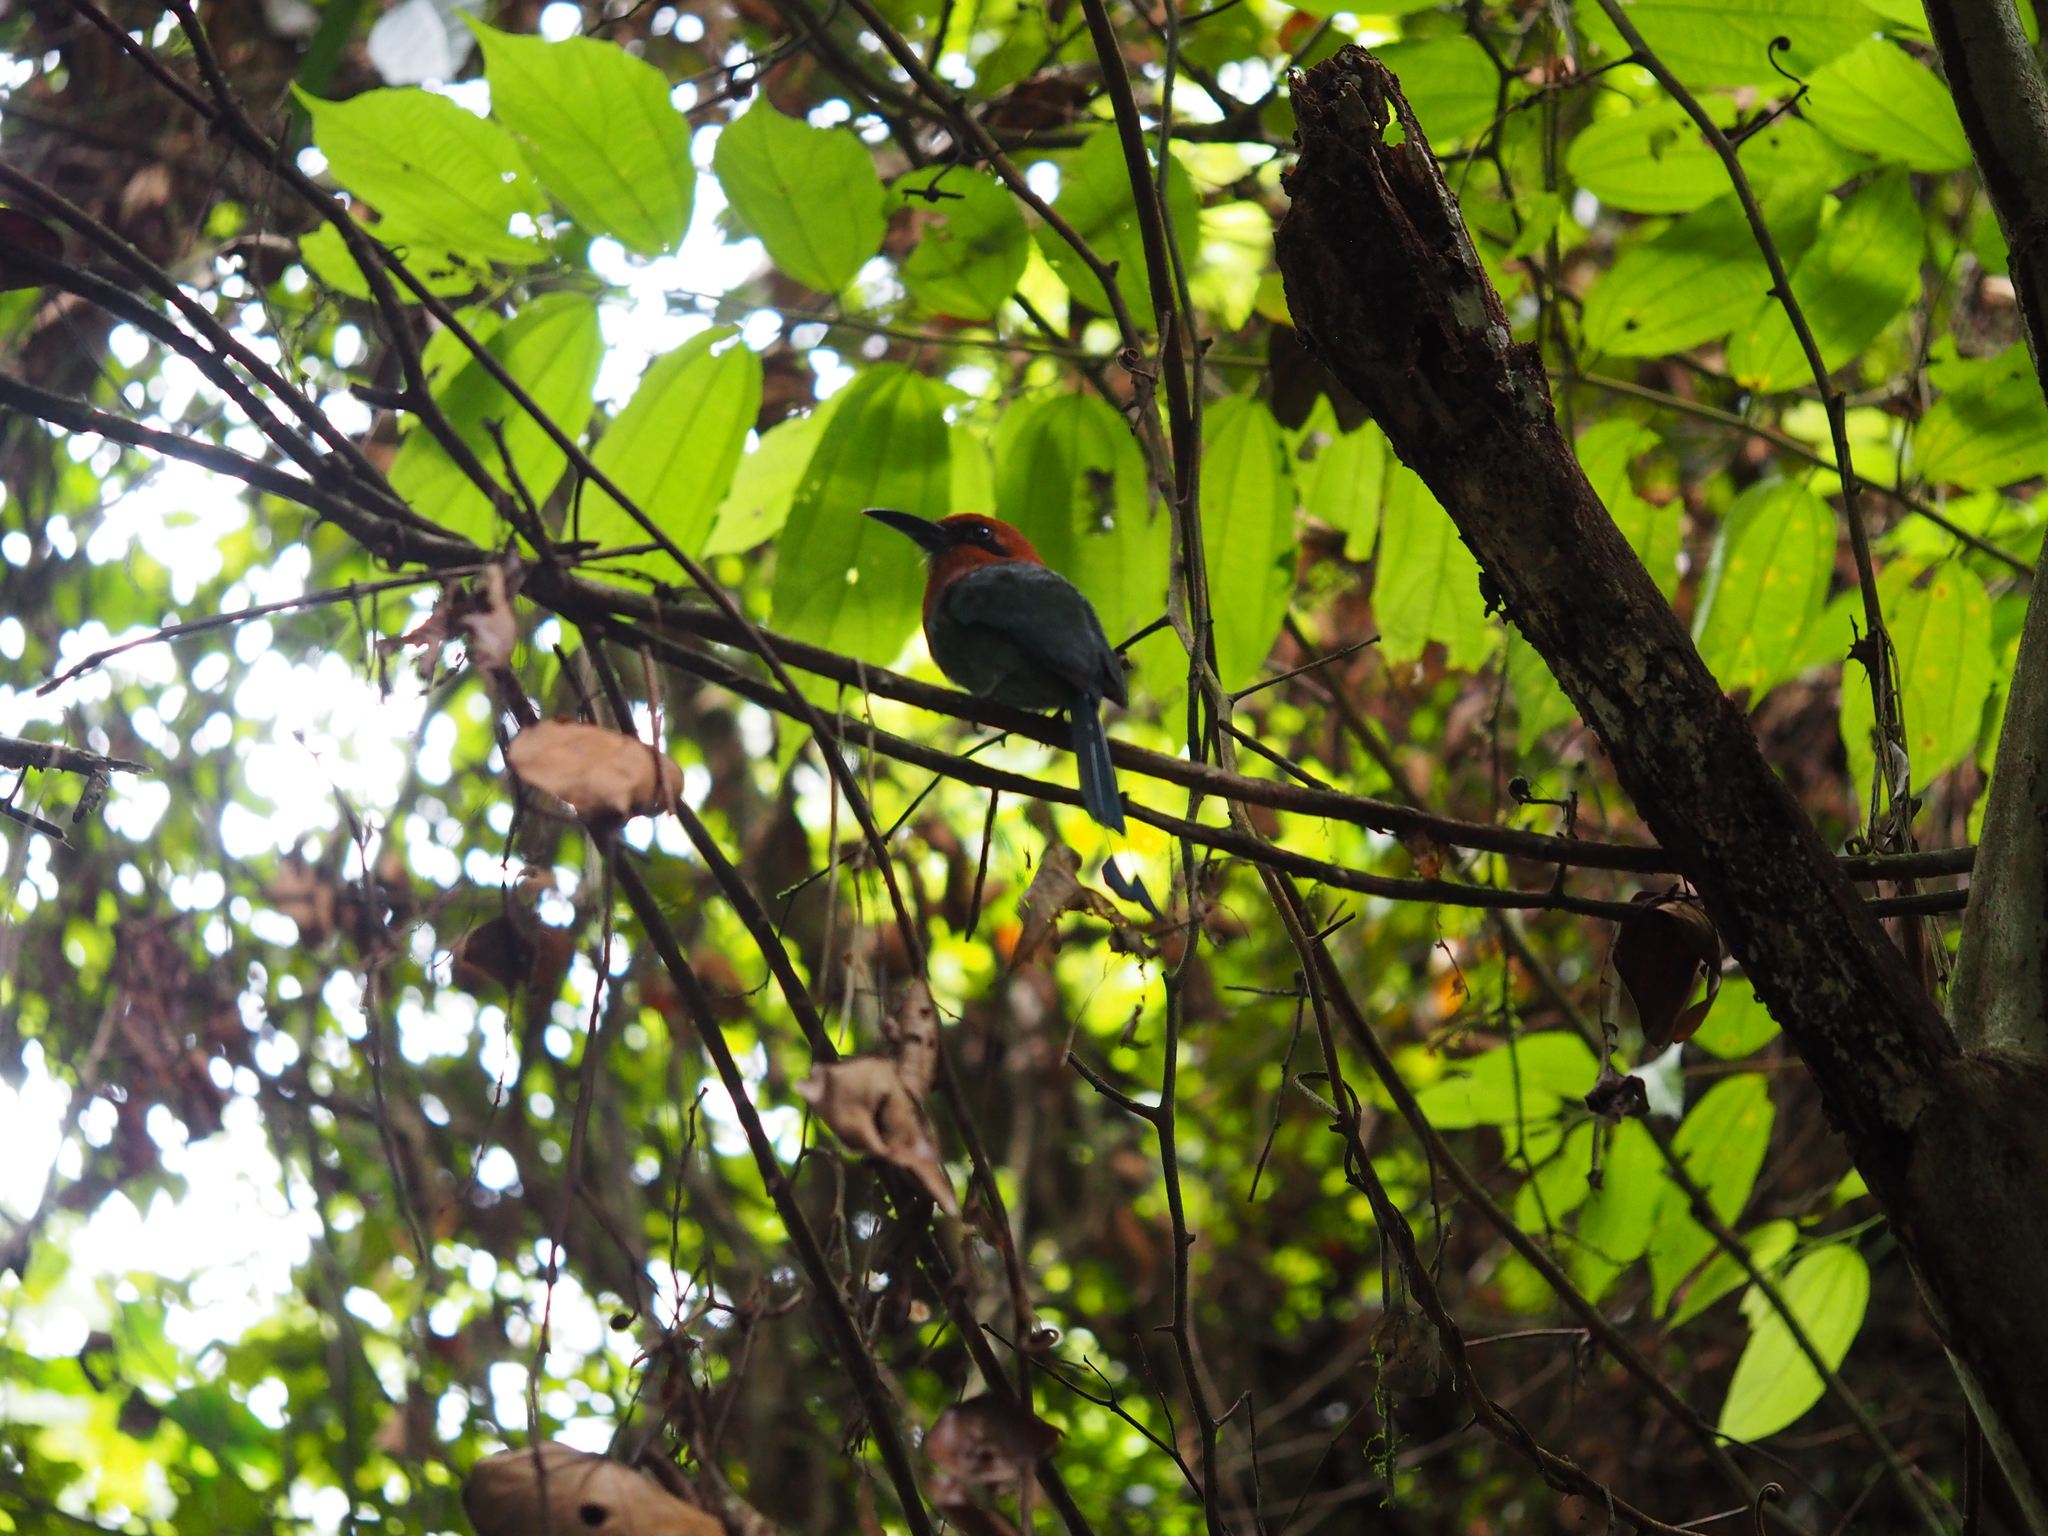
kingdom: Animalia
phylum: Chordata
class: Aves
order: Coraciiformes
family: Momotidae
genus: Electron
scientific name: Electron platyrhynchum
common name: Broad-billed motmot
